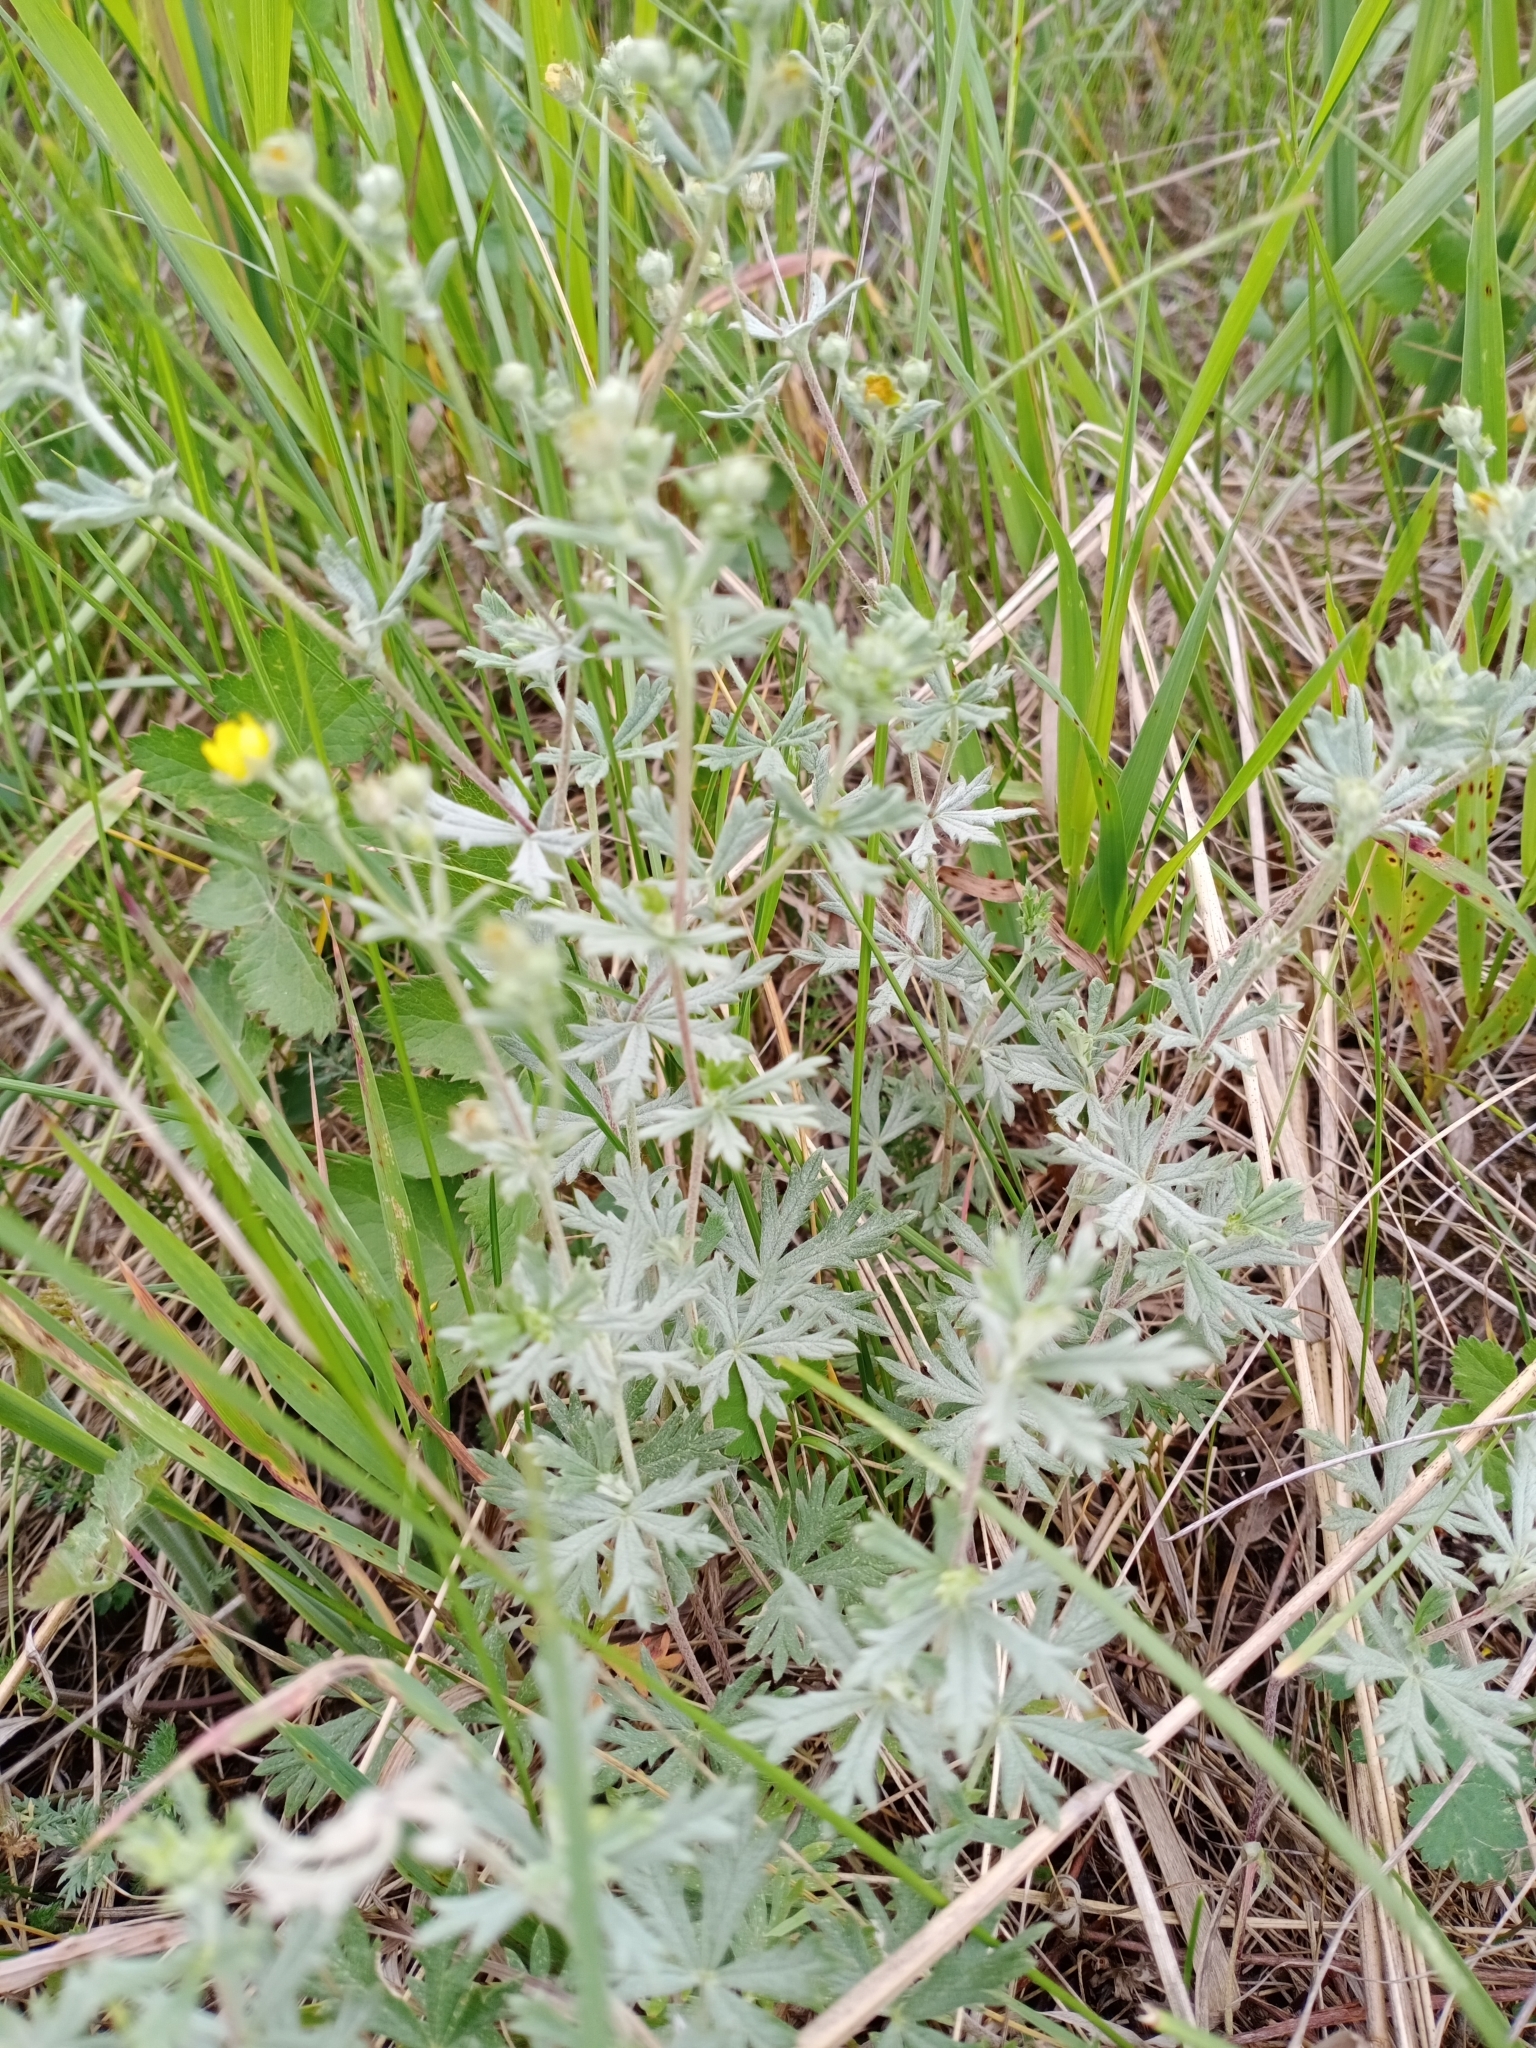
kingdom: Plantae
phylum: Tracheophyta
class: Magnoliopsida
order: Rosales
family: Rosaceae
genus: Potentilla
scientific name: Potentilla argentea
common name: Hoary cinquefoil
